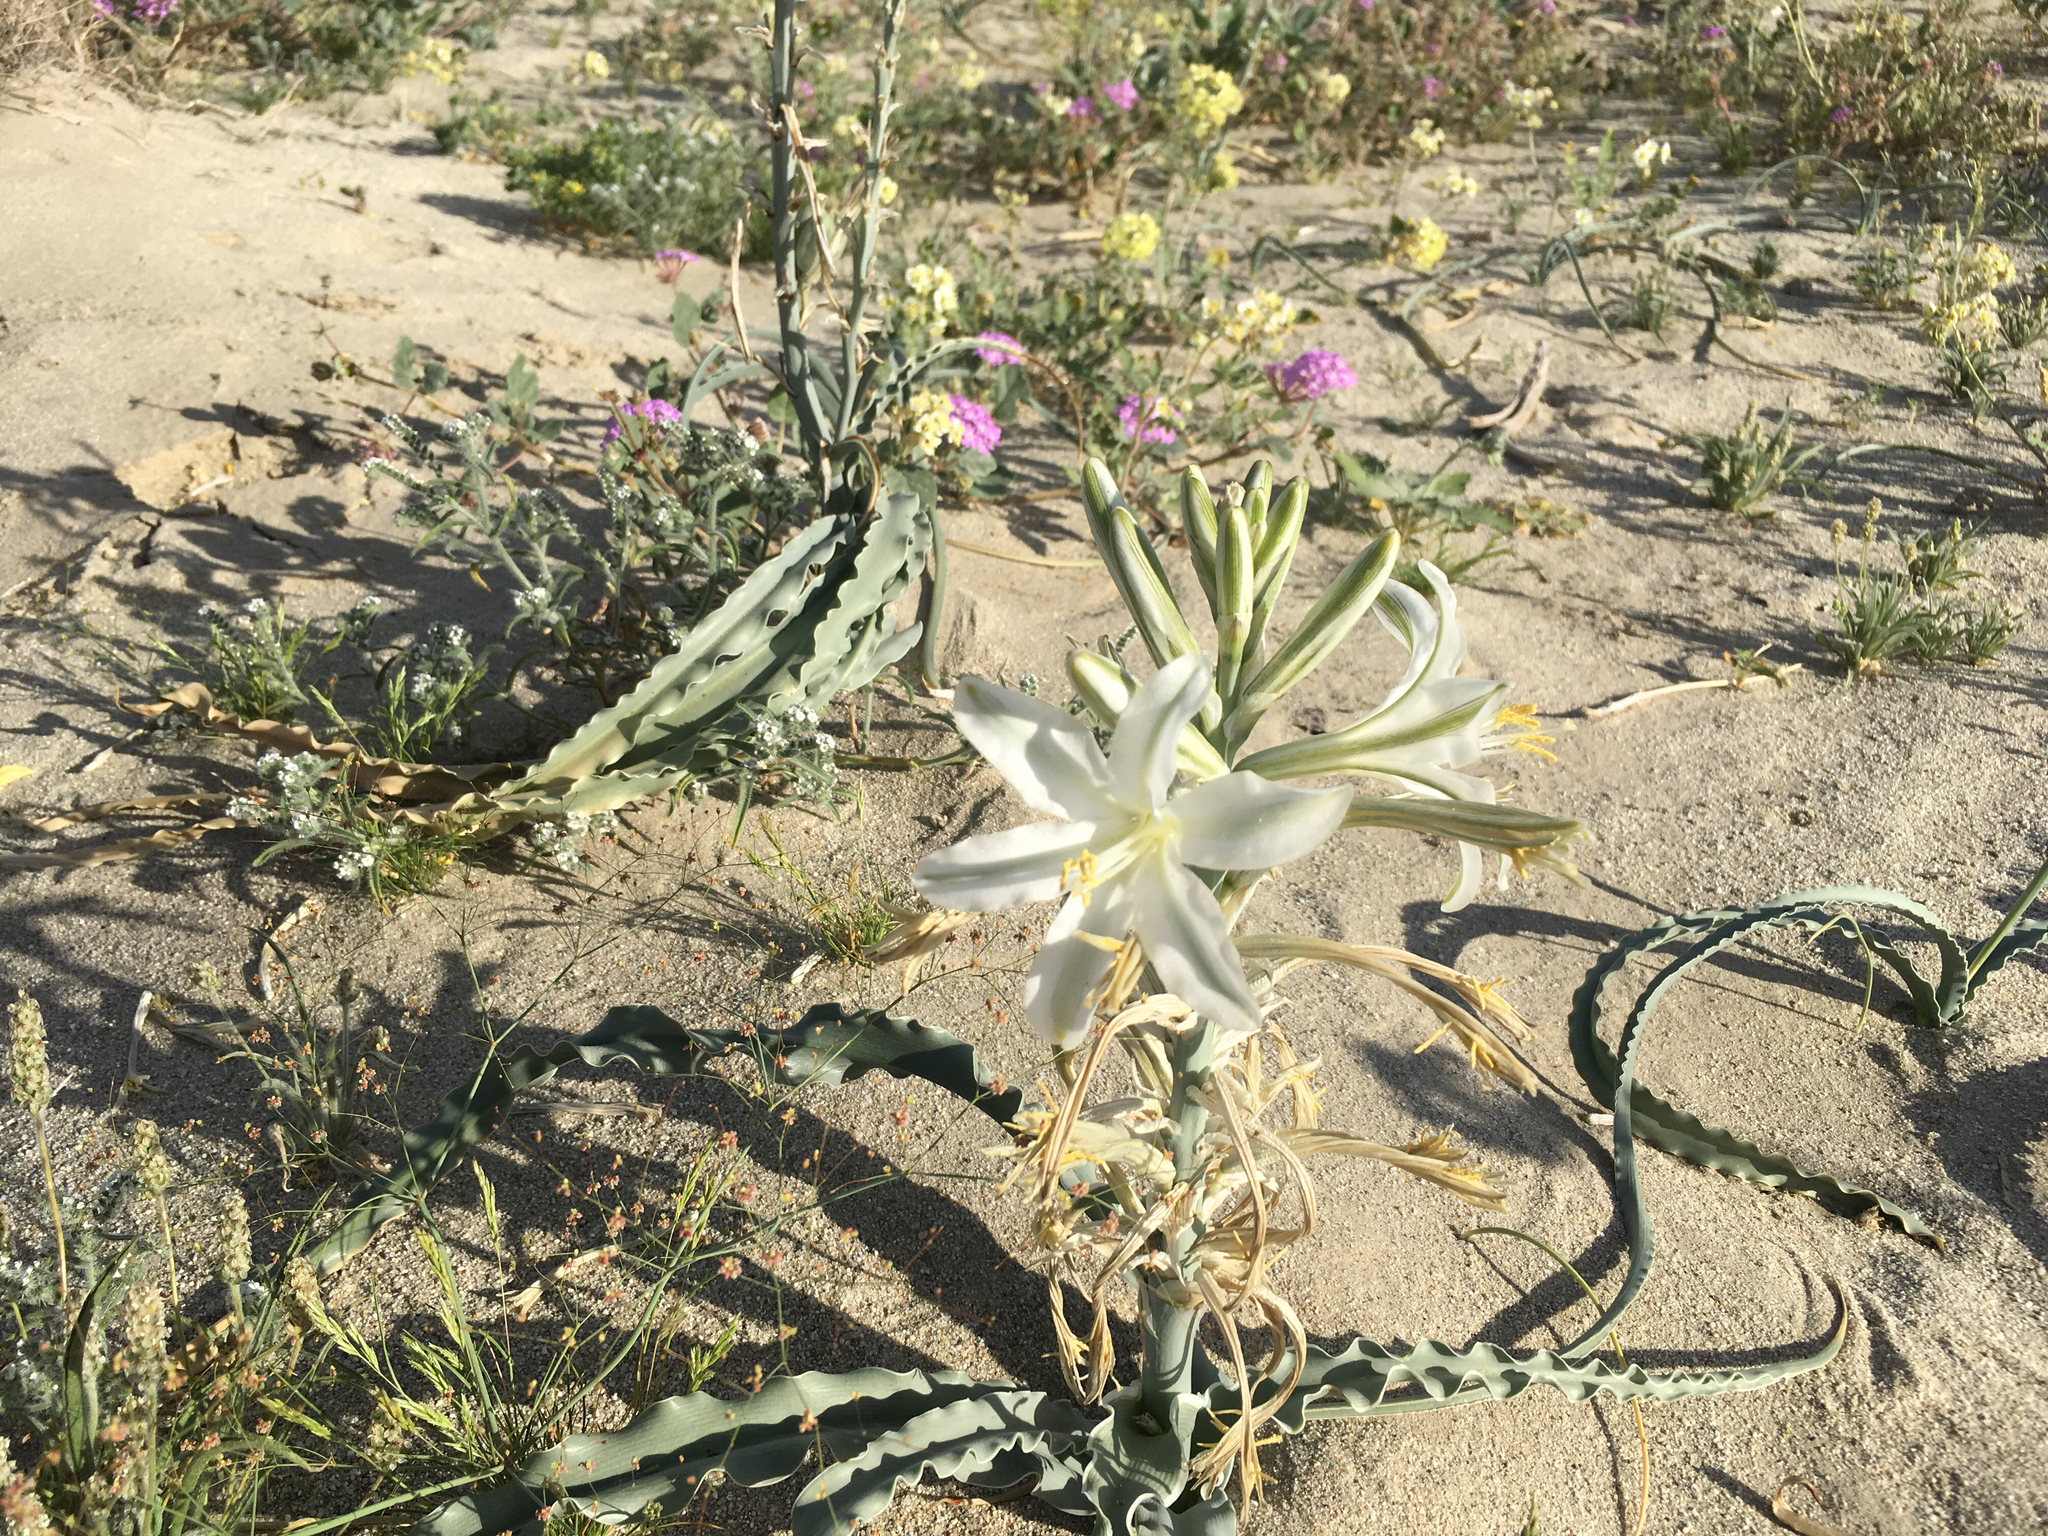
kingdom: Plantae
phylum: Tracheophyta
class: Liliopsida
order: Asparagales
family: Asparagaceae
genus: Hesperocallis
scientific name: Hesperocallis undulata
